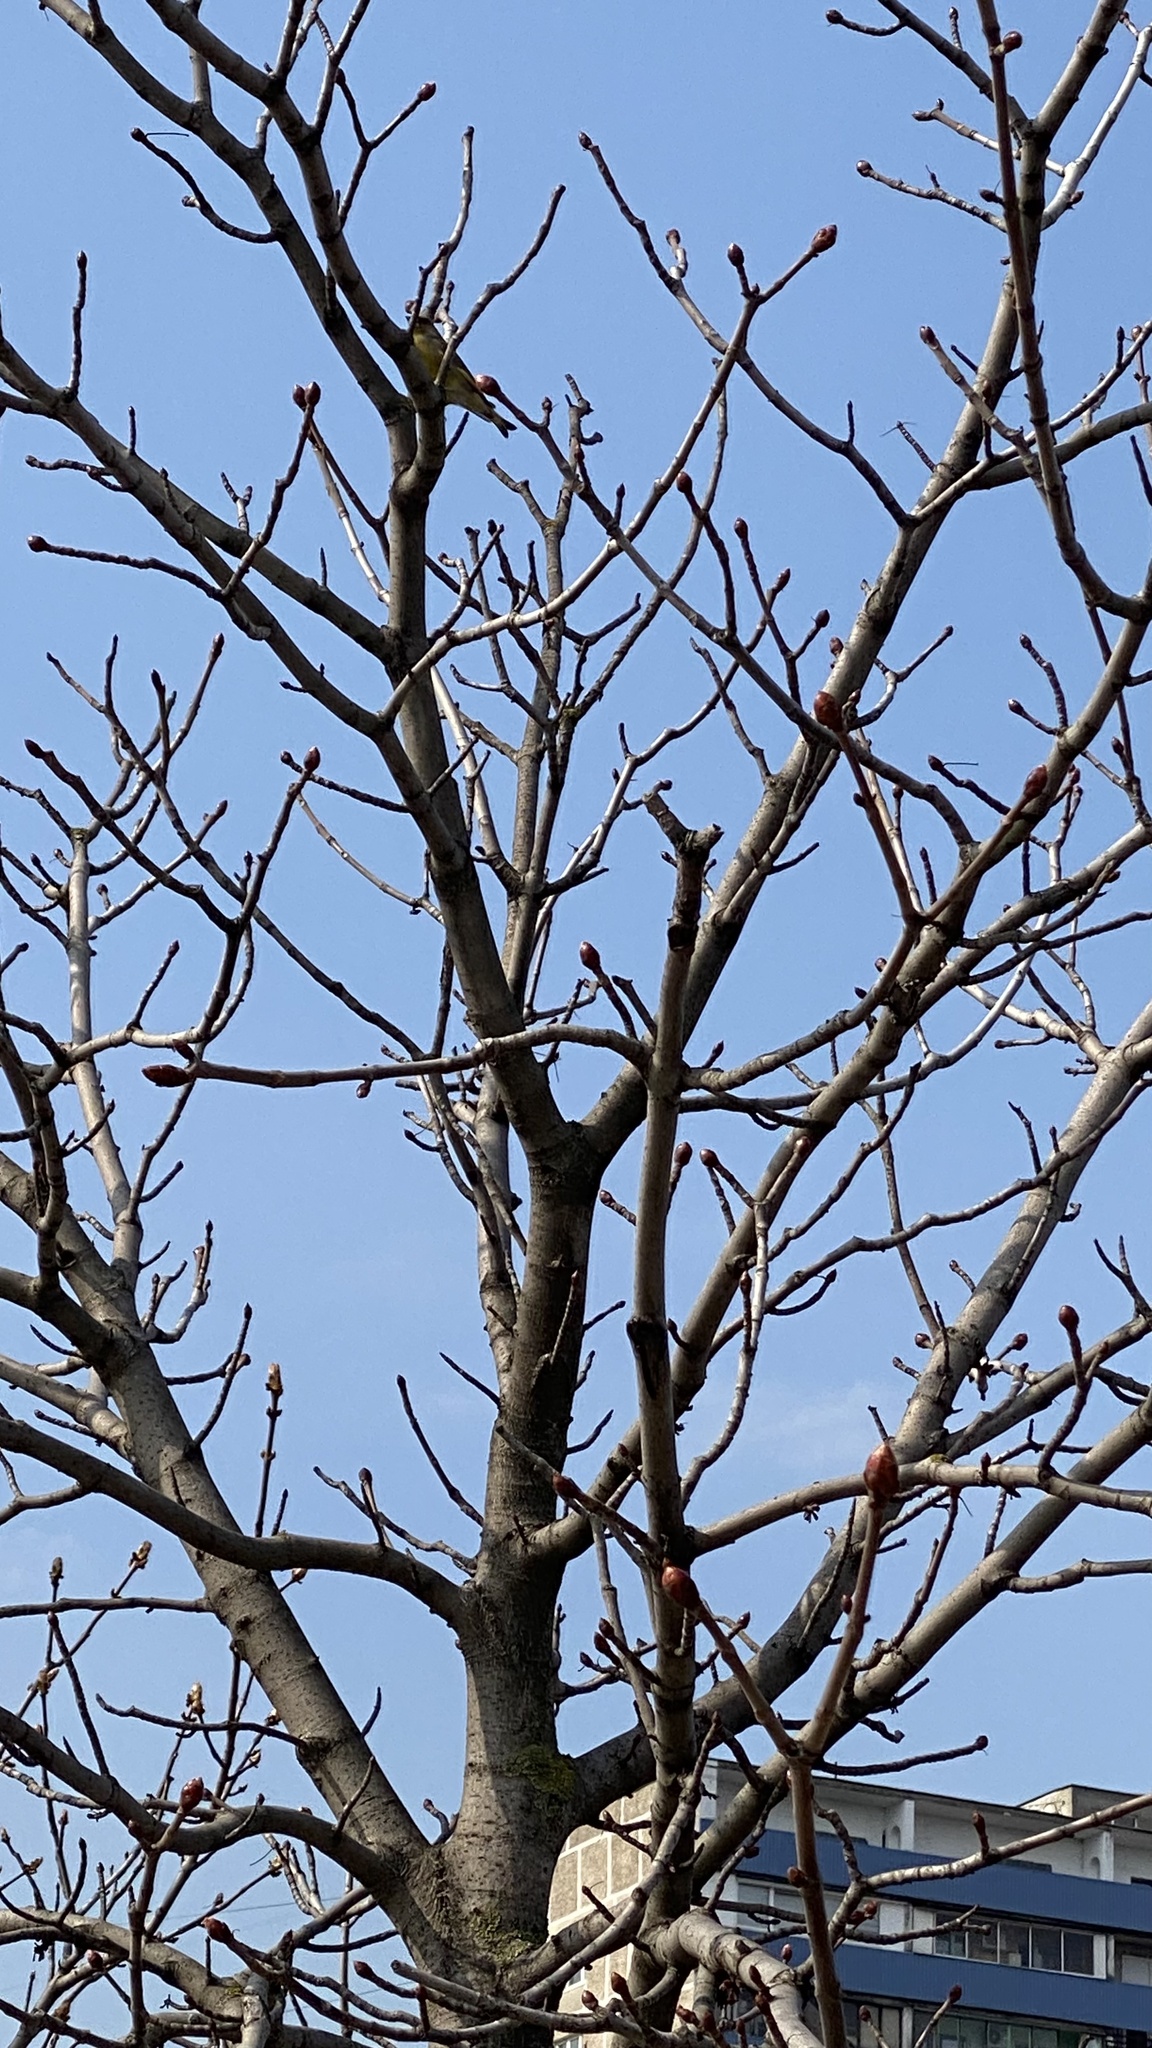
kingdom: Plantae
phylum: Tracheophyta
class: Liliopsida
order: Poales
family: Poaceae
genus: Chloris
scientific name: Chloris chloris
